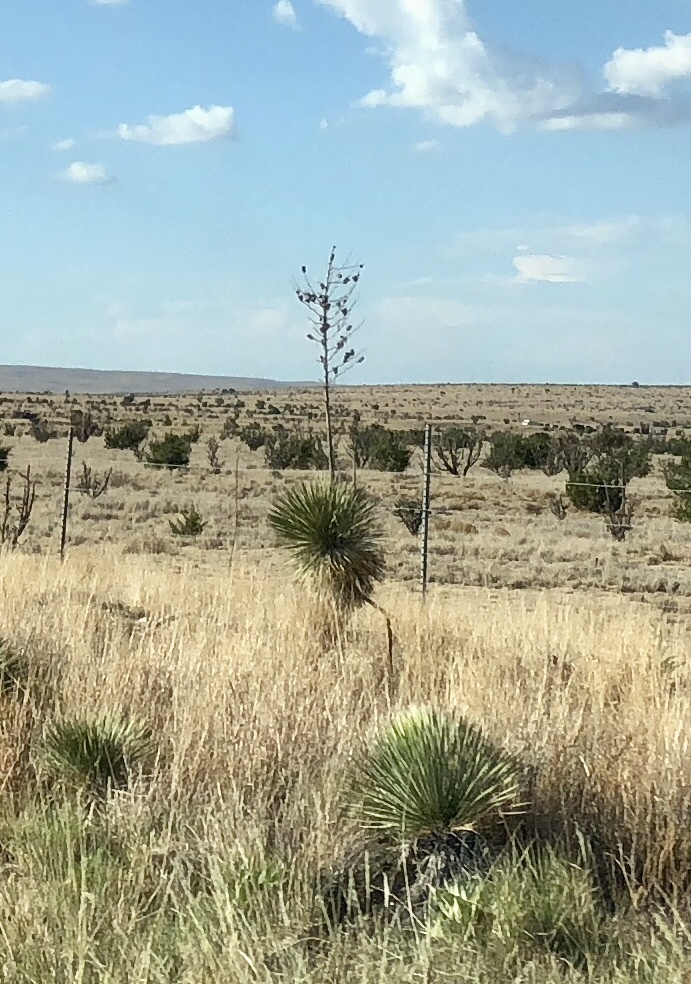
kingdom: Plantae
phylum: Tracheophyta
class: Liliopsida
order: Asparagales
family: Asparagaceae
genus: Yucca
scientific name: Yucca elata
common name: Palmella
